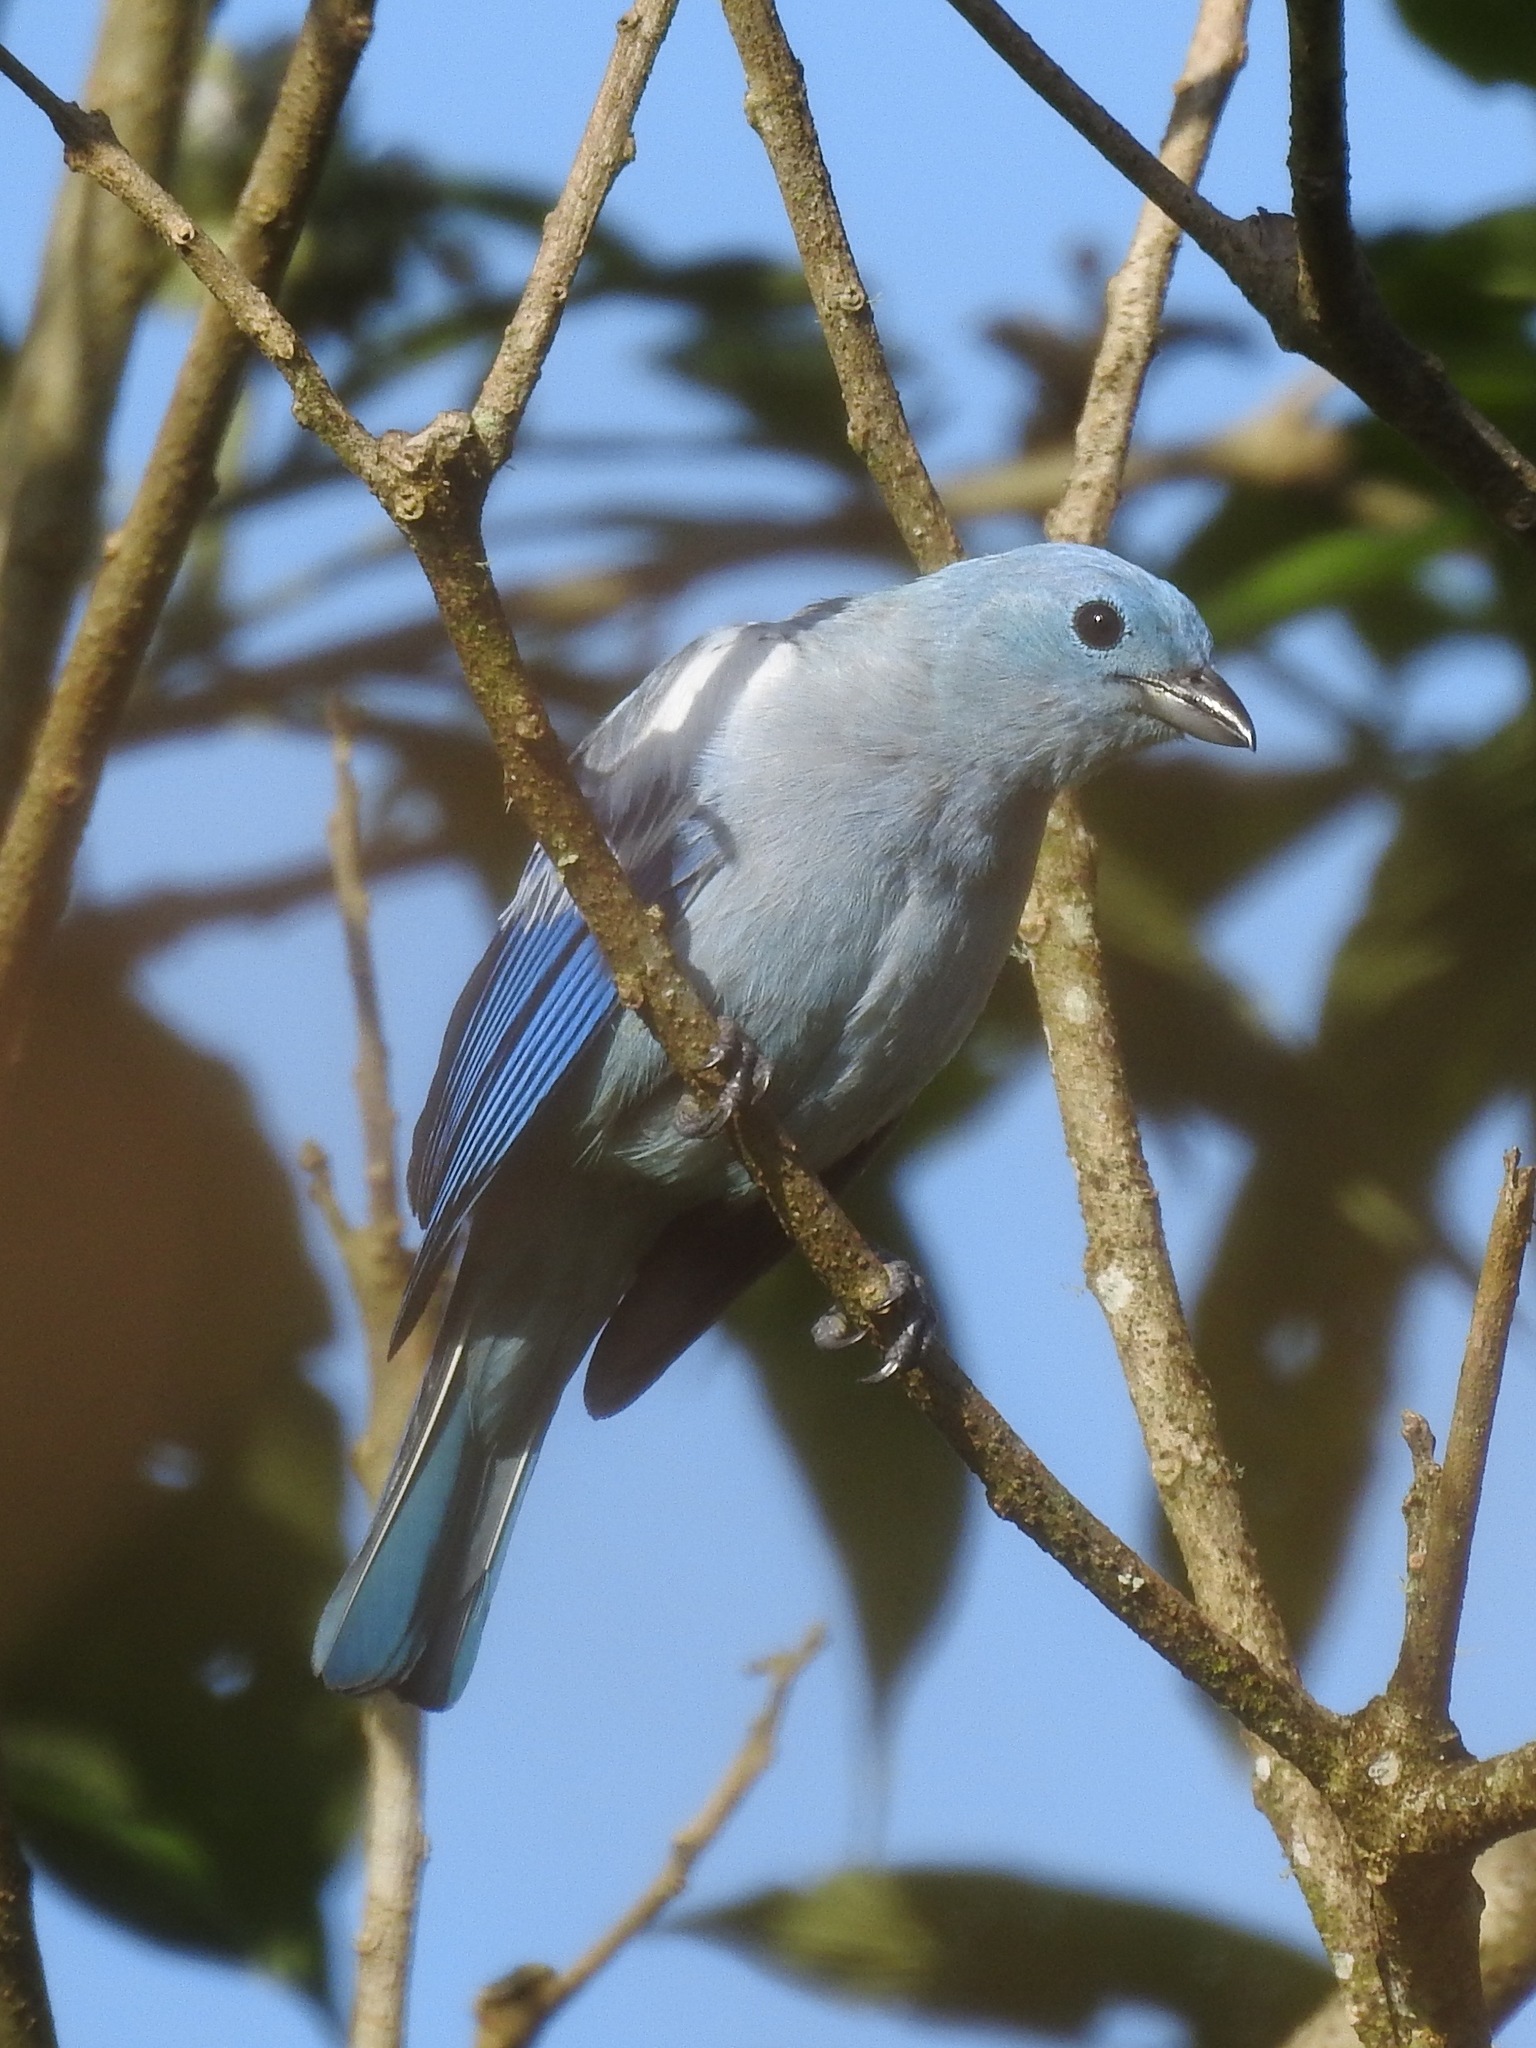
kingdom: Animalia
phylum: Chordata
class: Aves
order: Passeriformes
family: Thraupidae
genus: Thraupis
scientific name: Thraupis episcopus
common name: Blue-grey tanager
